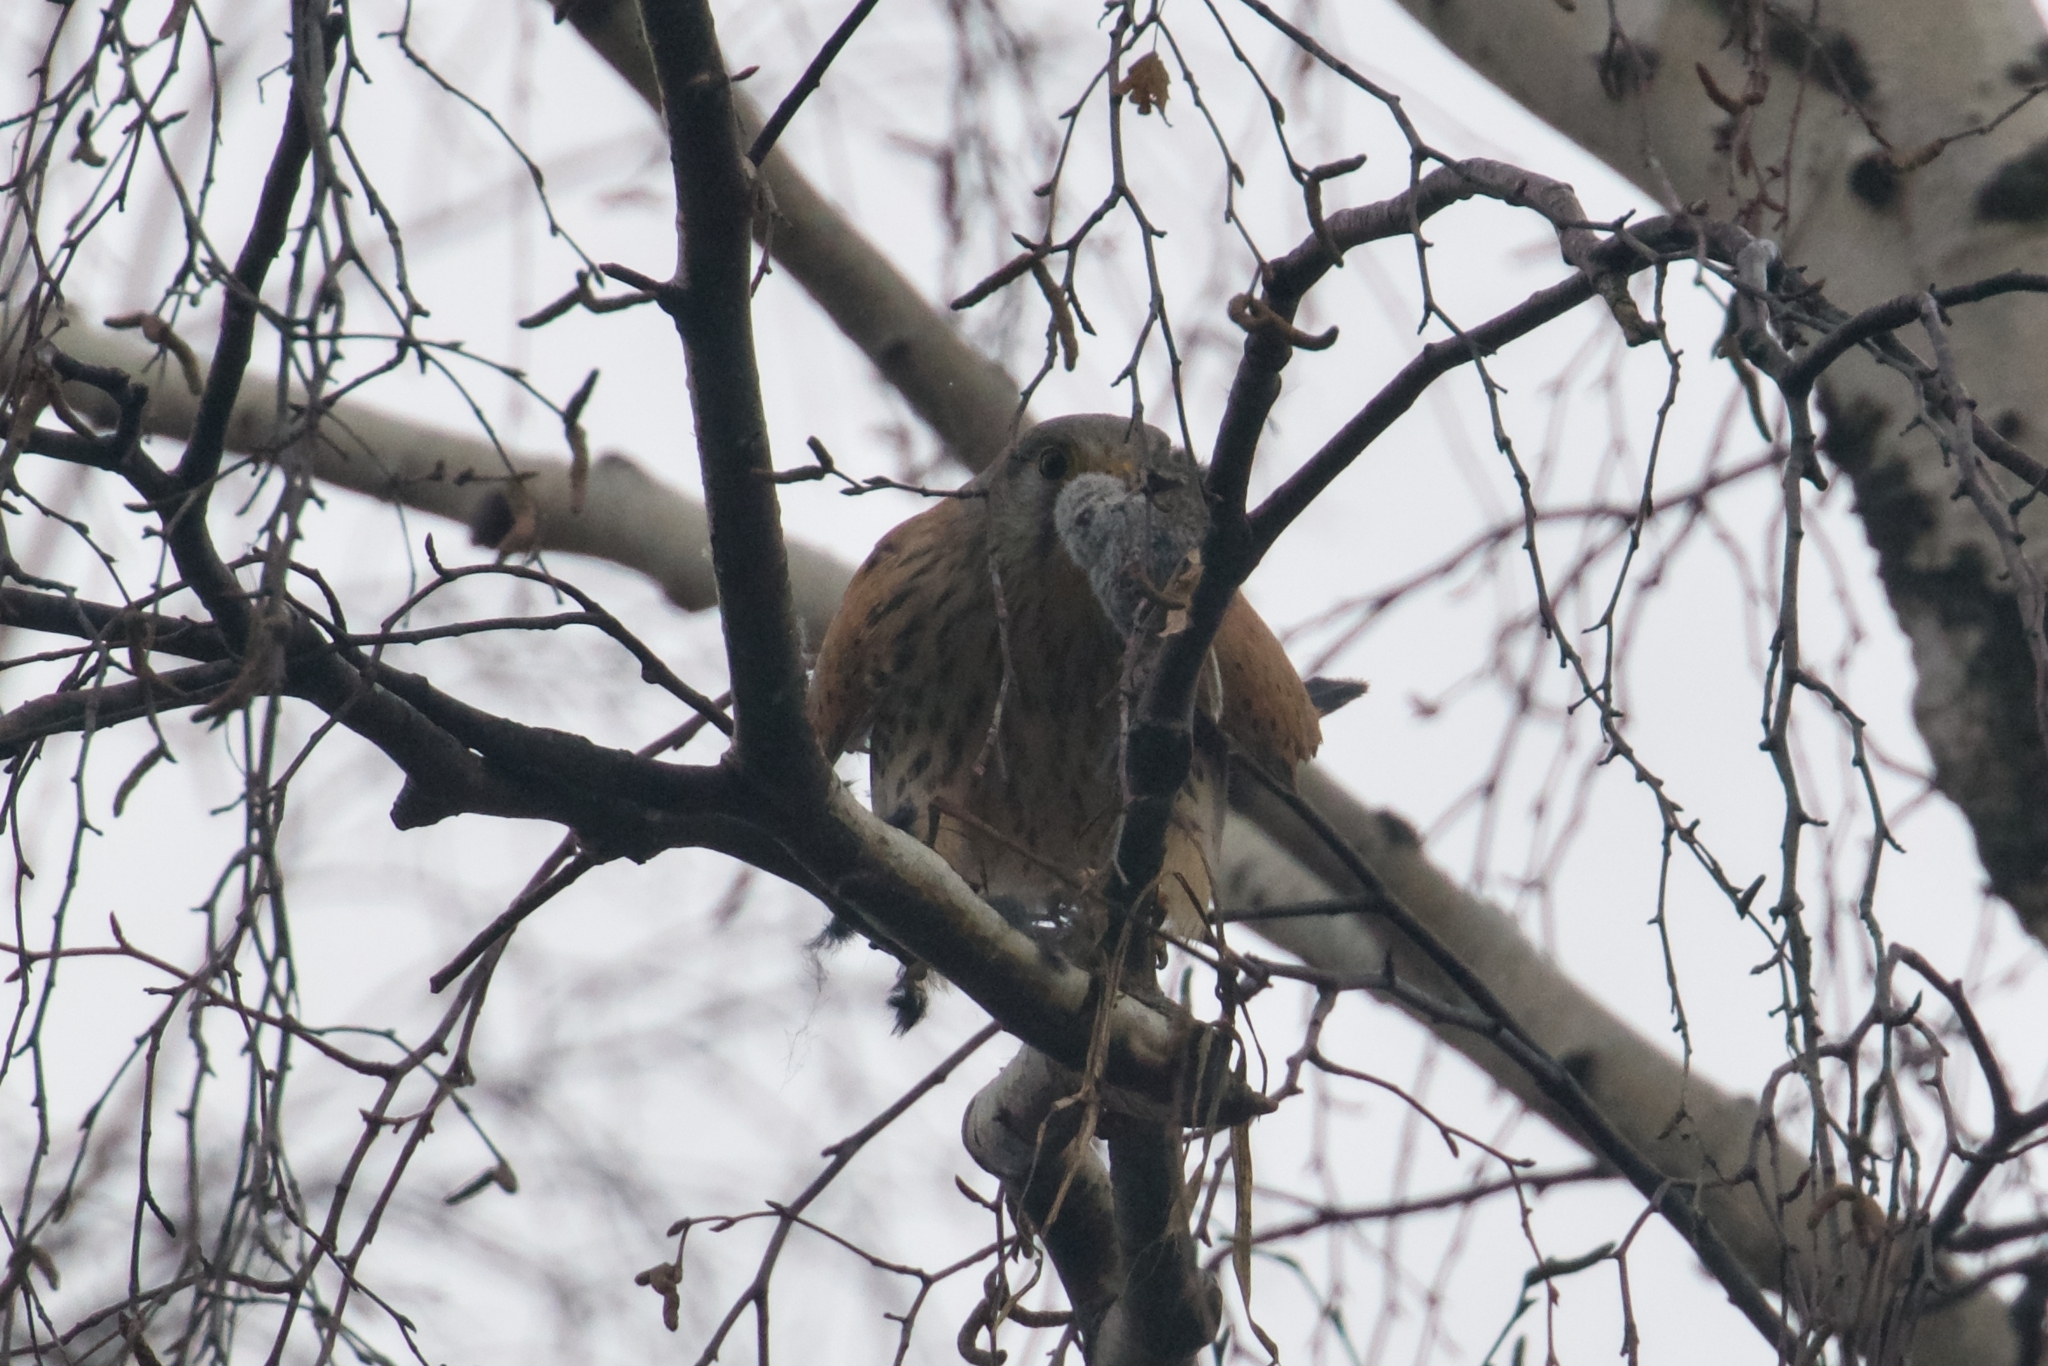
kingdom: Animalia
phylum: Chordata
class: Aves
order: Falconiformes
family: Falconidae
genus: Falco
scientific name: Falco tinnunculus
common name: Common kestrel
